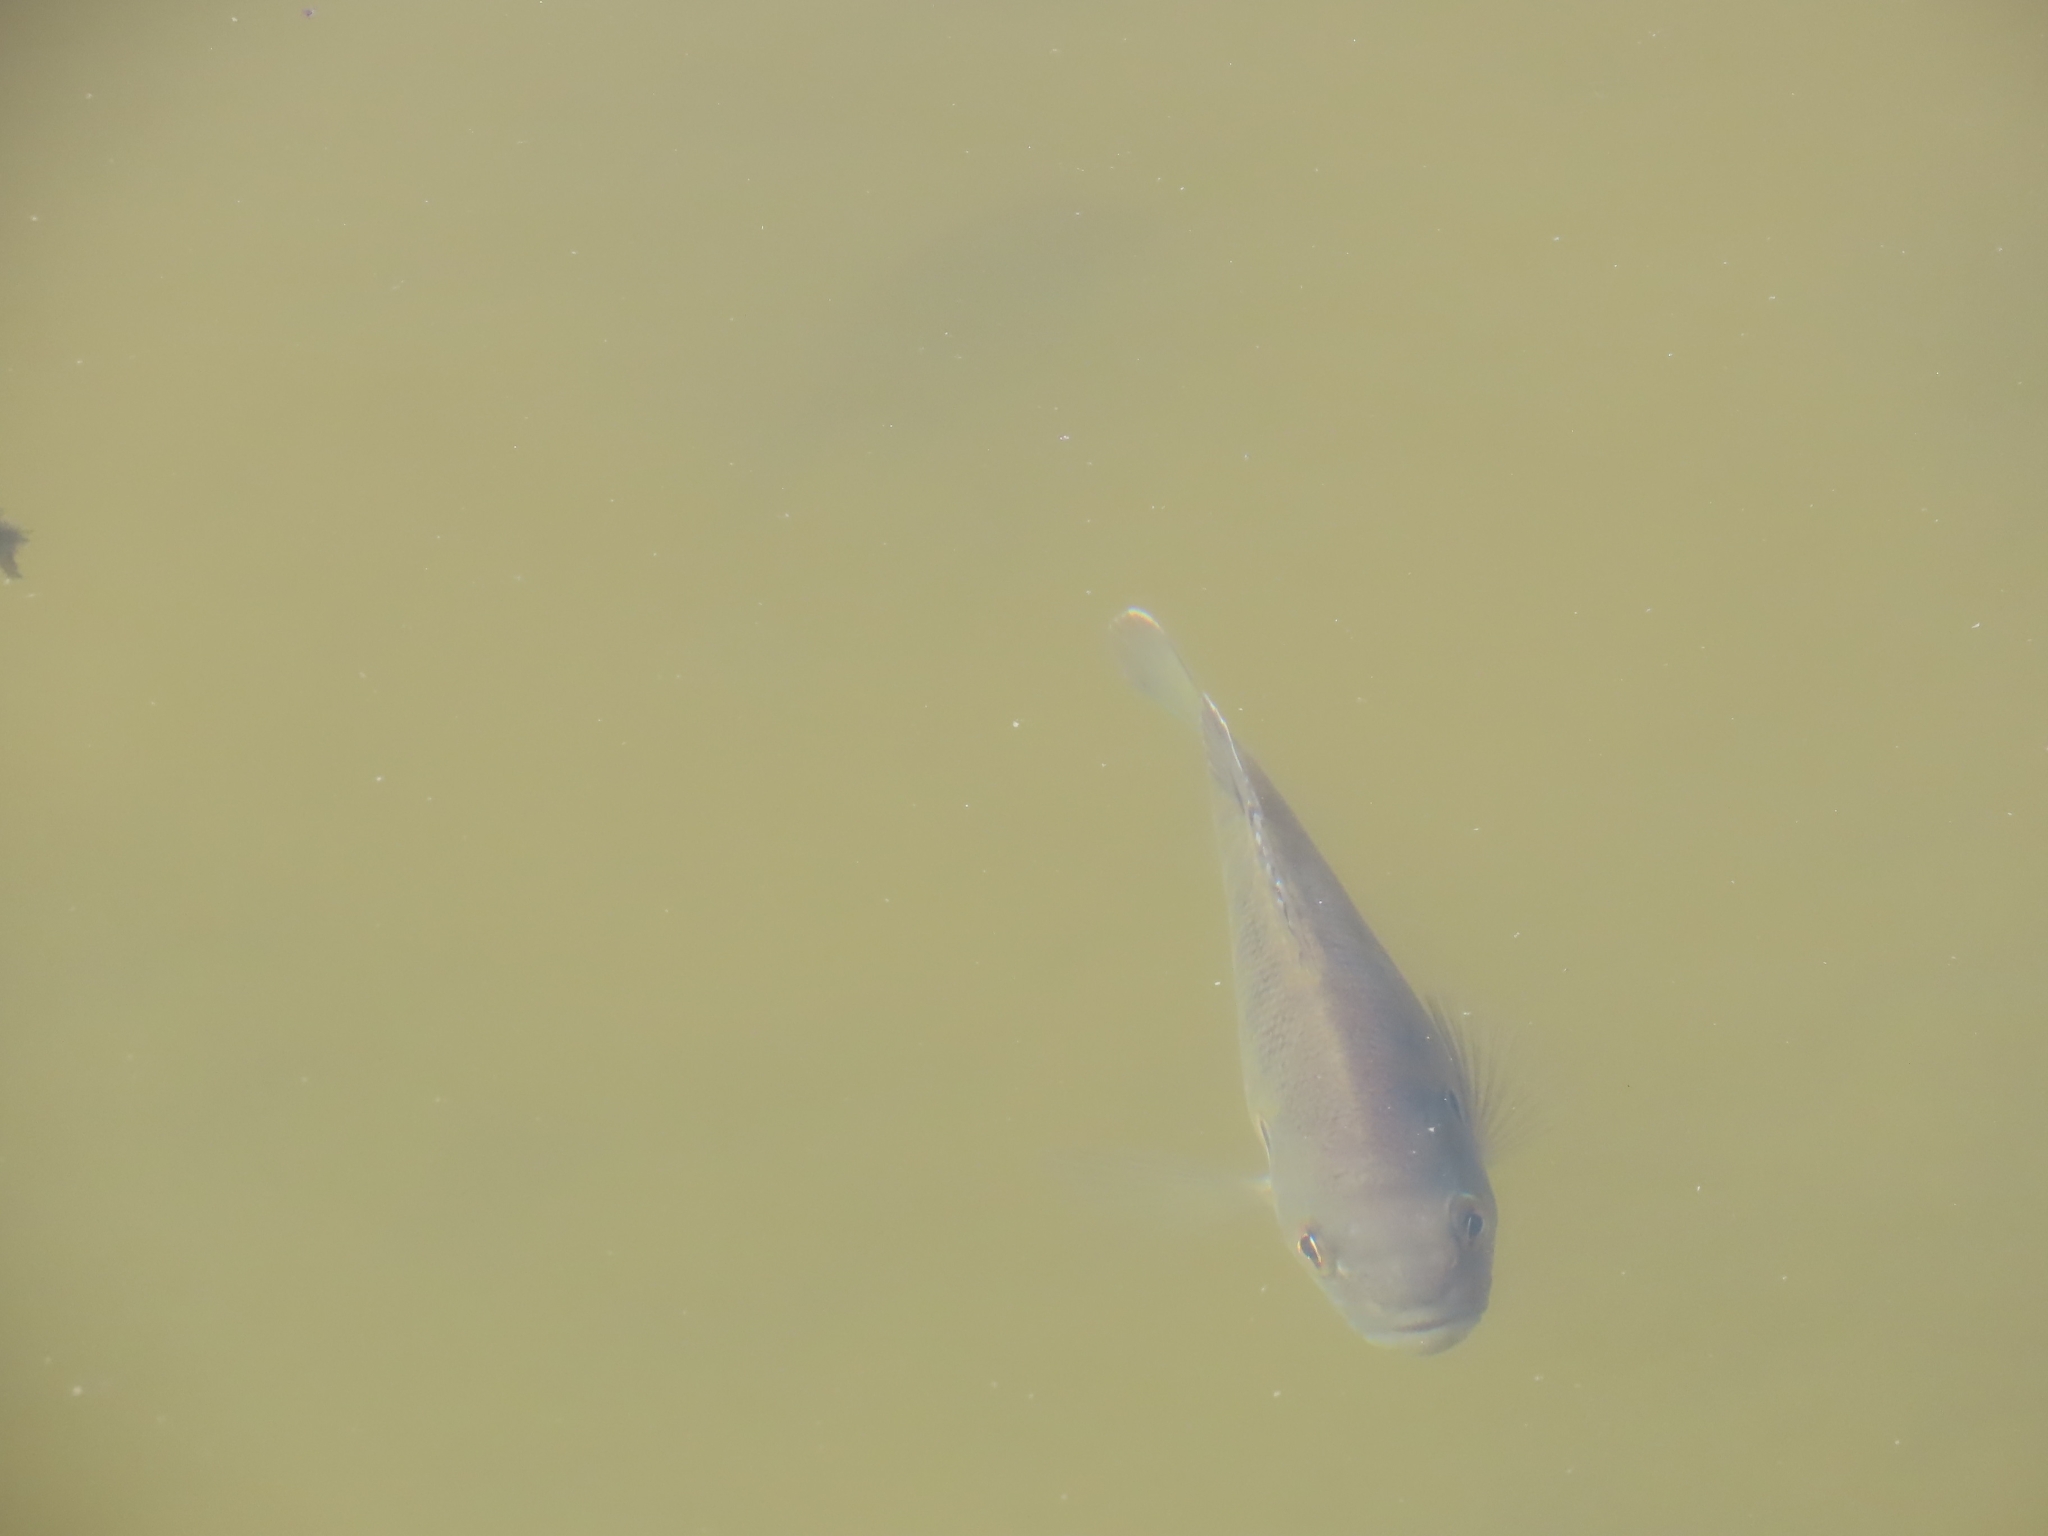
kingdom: Animalia
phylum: Chordata
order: Perciformes
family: Centrarchidae
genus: Lepomis
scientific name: Lepomis cyanellus
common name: Green sunfish
